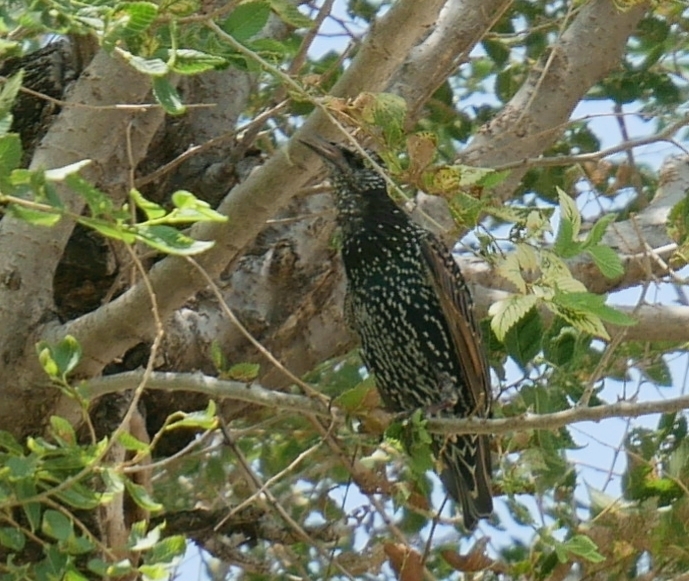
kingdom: Animalia
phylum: Chordata
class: Aves
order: Passeriformes
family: Sturnidae
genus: Sturnus
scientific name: Sturnus vulgaris
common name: Common starling
